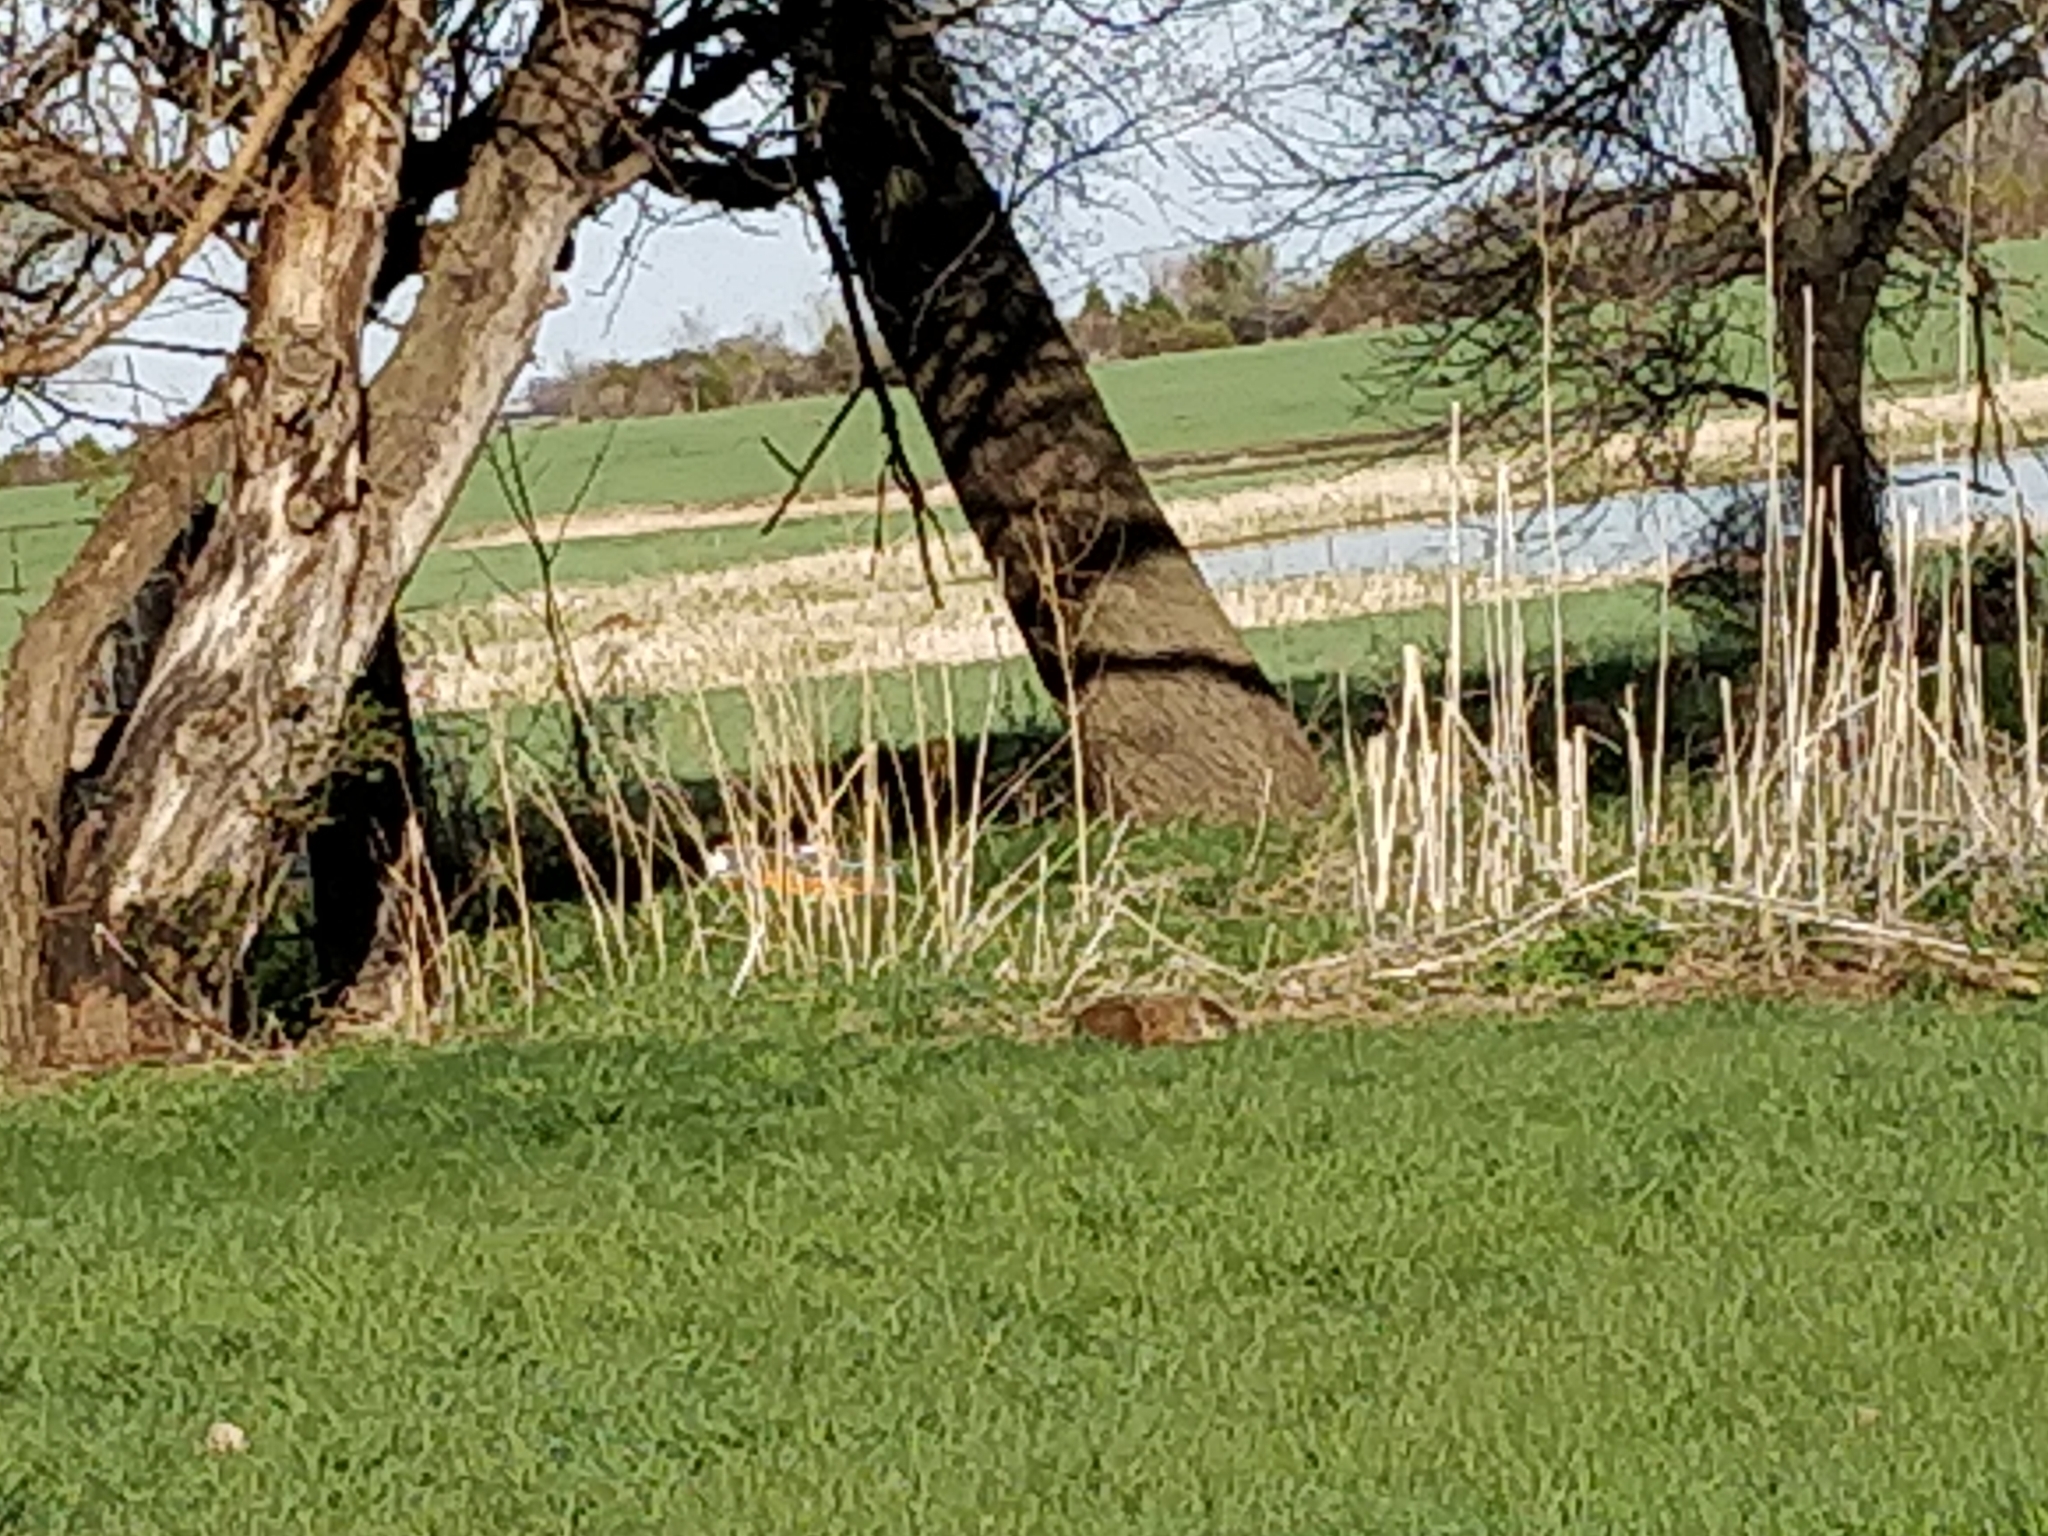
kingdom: Animalia
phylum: Chordata
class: Mammalia
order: Rodentia
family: Sciuridae
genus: Marmota
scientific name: Marmota monax
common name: Groundhog
